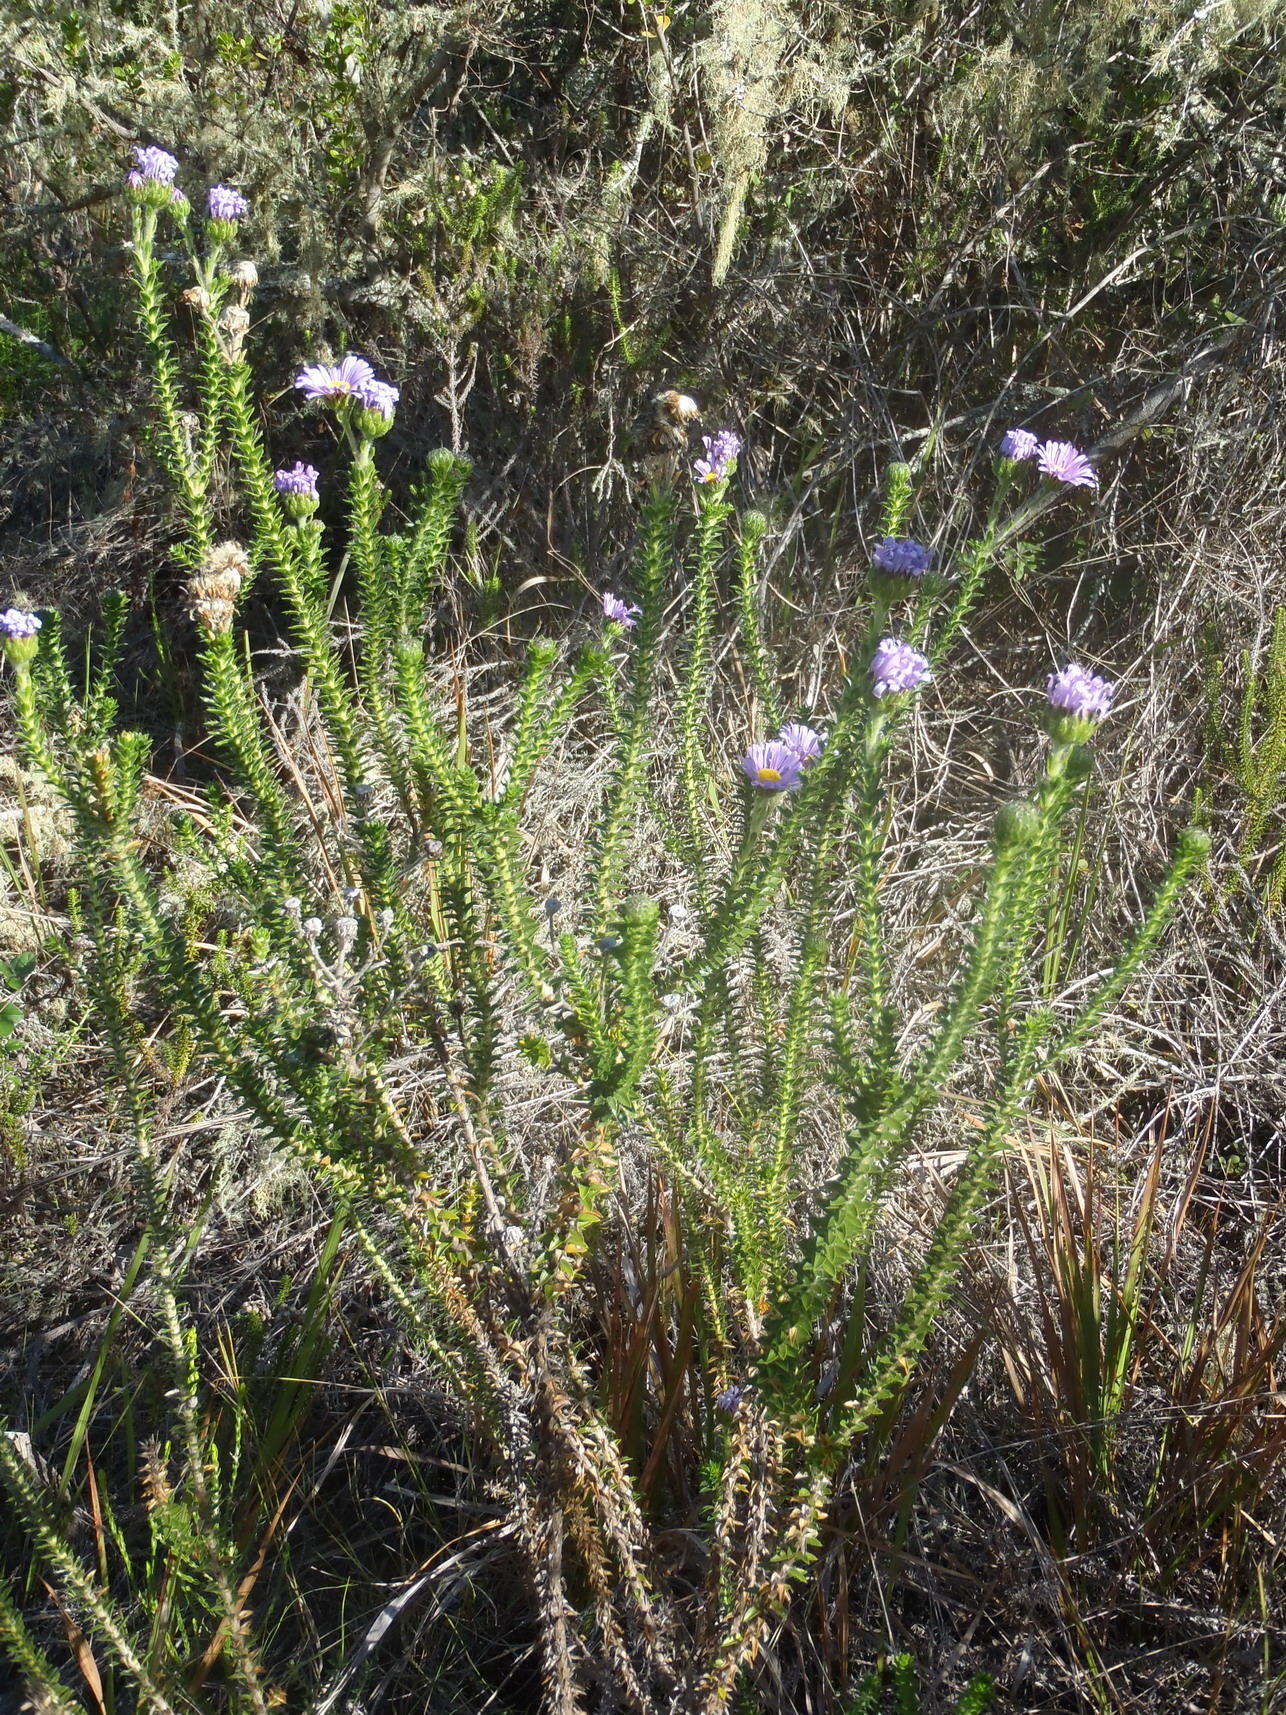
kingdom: Plantae
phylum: Tracheophyta
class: Magnoliopsida
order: Asterales
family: Asteraceae
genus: Felicia
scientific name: Felicia echinata
